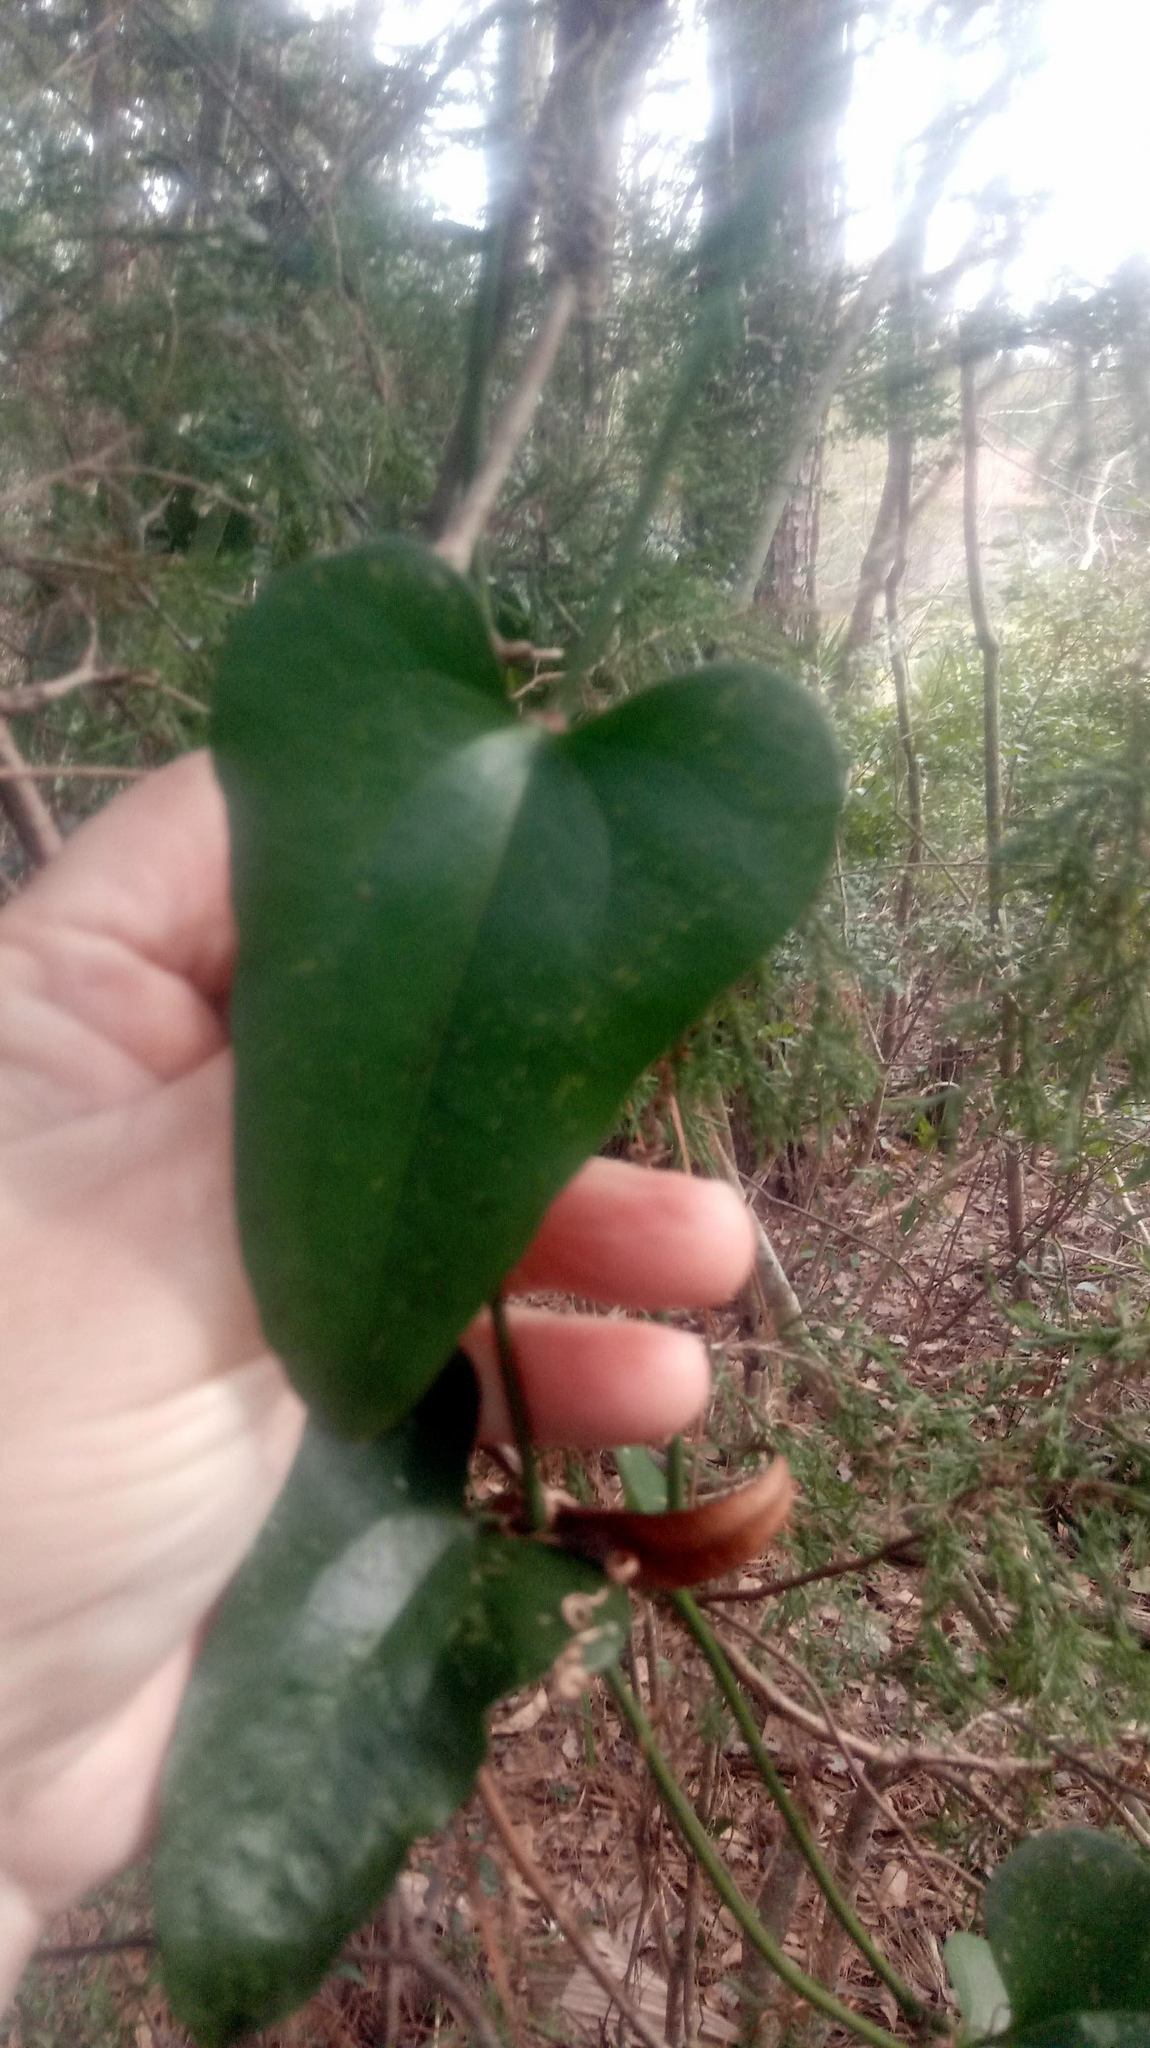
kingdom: Plantae
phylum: Tracheophyta
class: Liliopsida
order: Liliales
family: Smilacaceae
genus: Smilax
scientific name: Smilax bona-nox
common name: Catbrier
